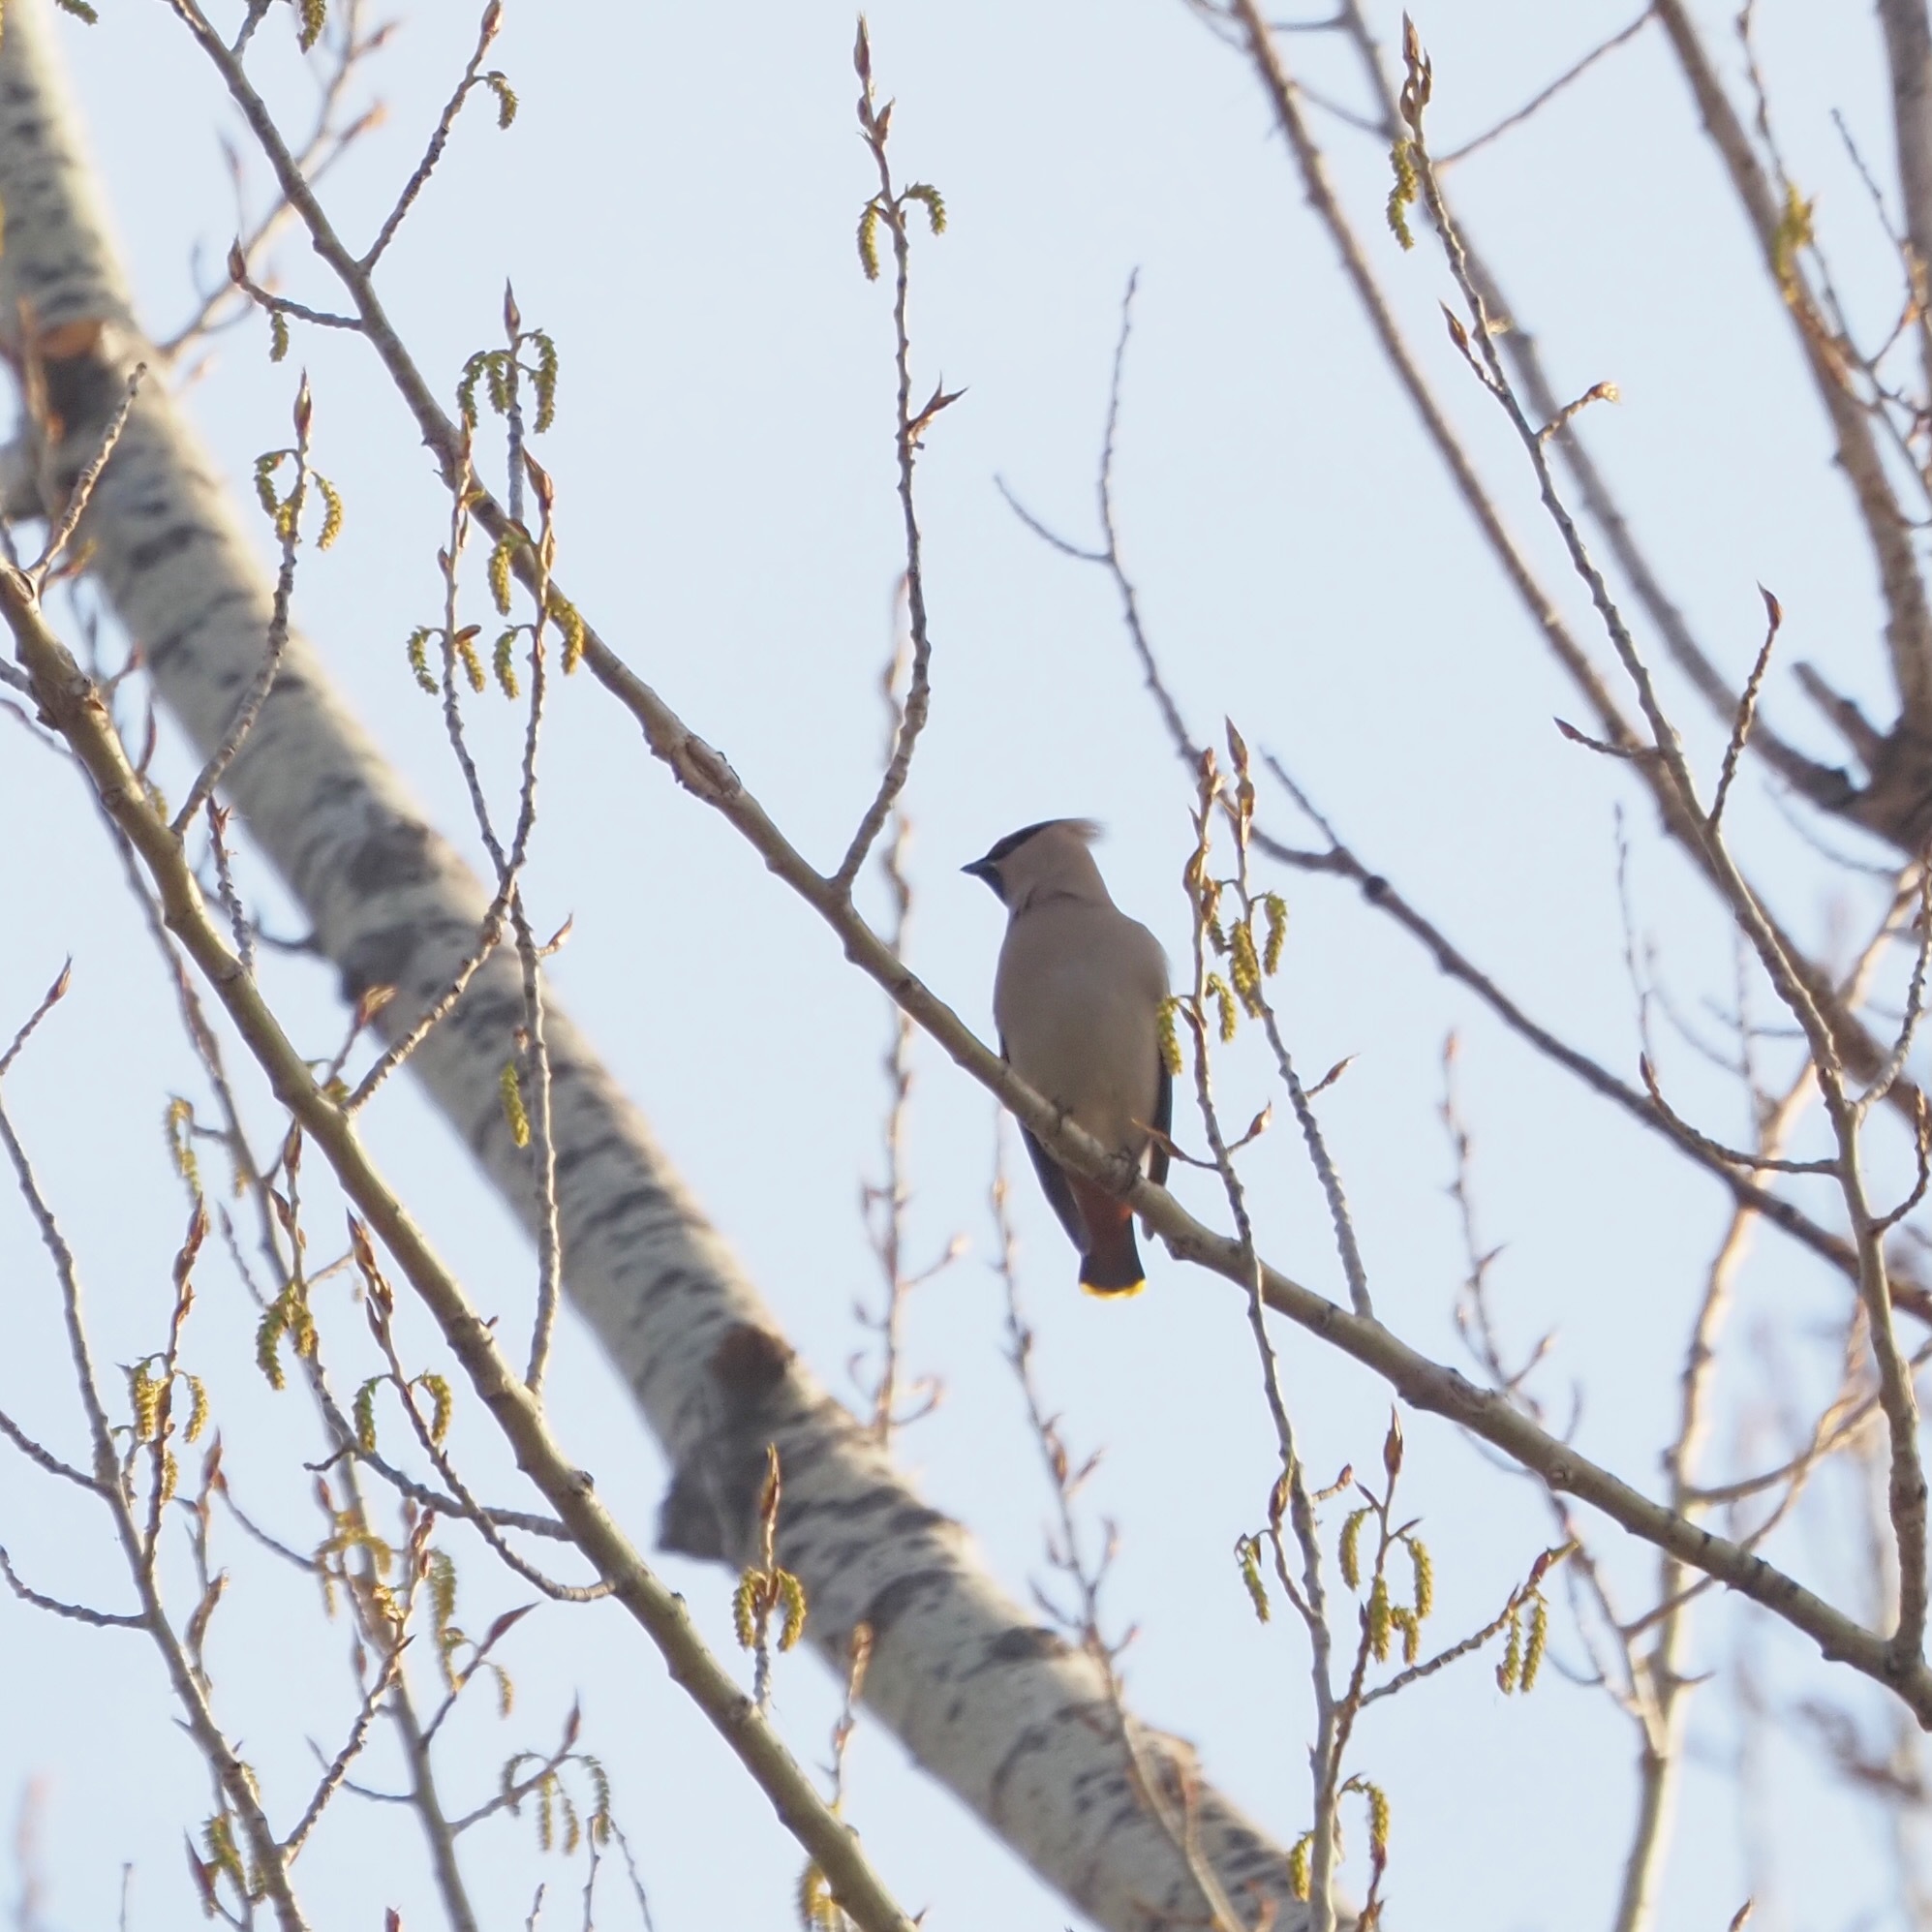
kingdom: Animalia
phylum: Chordata
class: Aves
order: Passeriformes
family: Bombycillidae
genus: Bombycilla
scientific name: Bombycilla garrulus
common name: Bohemian waxwing
